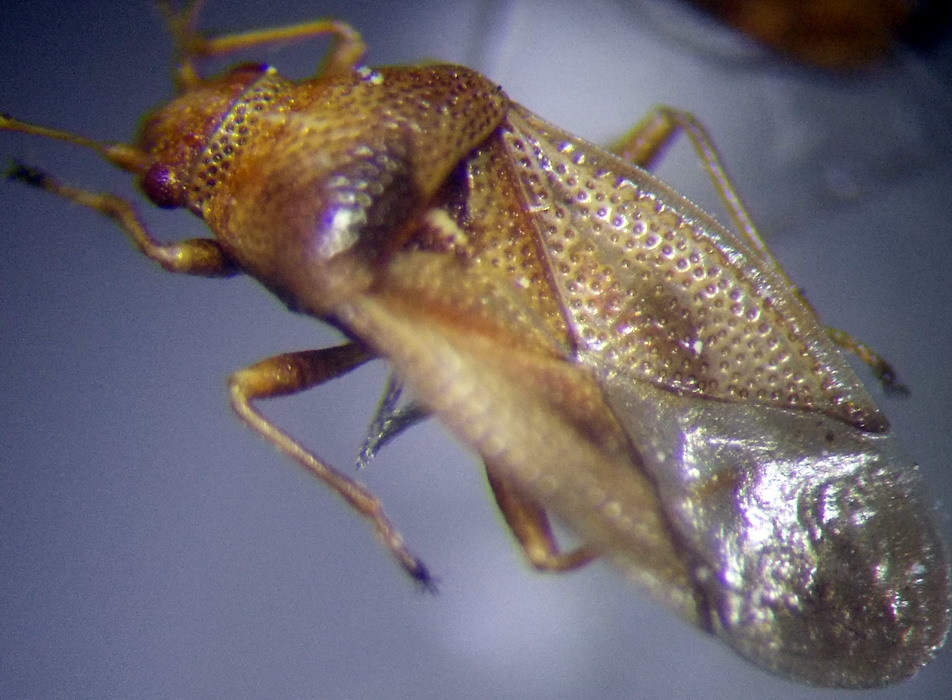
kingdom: Animalia
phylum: Arthropoda
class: Insecta
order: Hemiptera
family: Cymidae
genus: Cymus
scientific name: Cymus glandicolor
